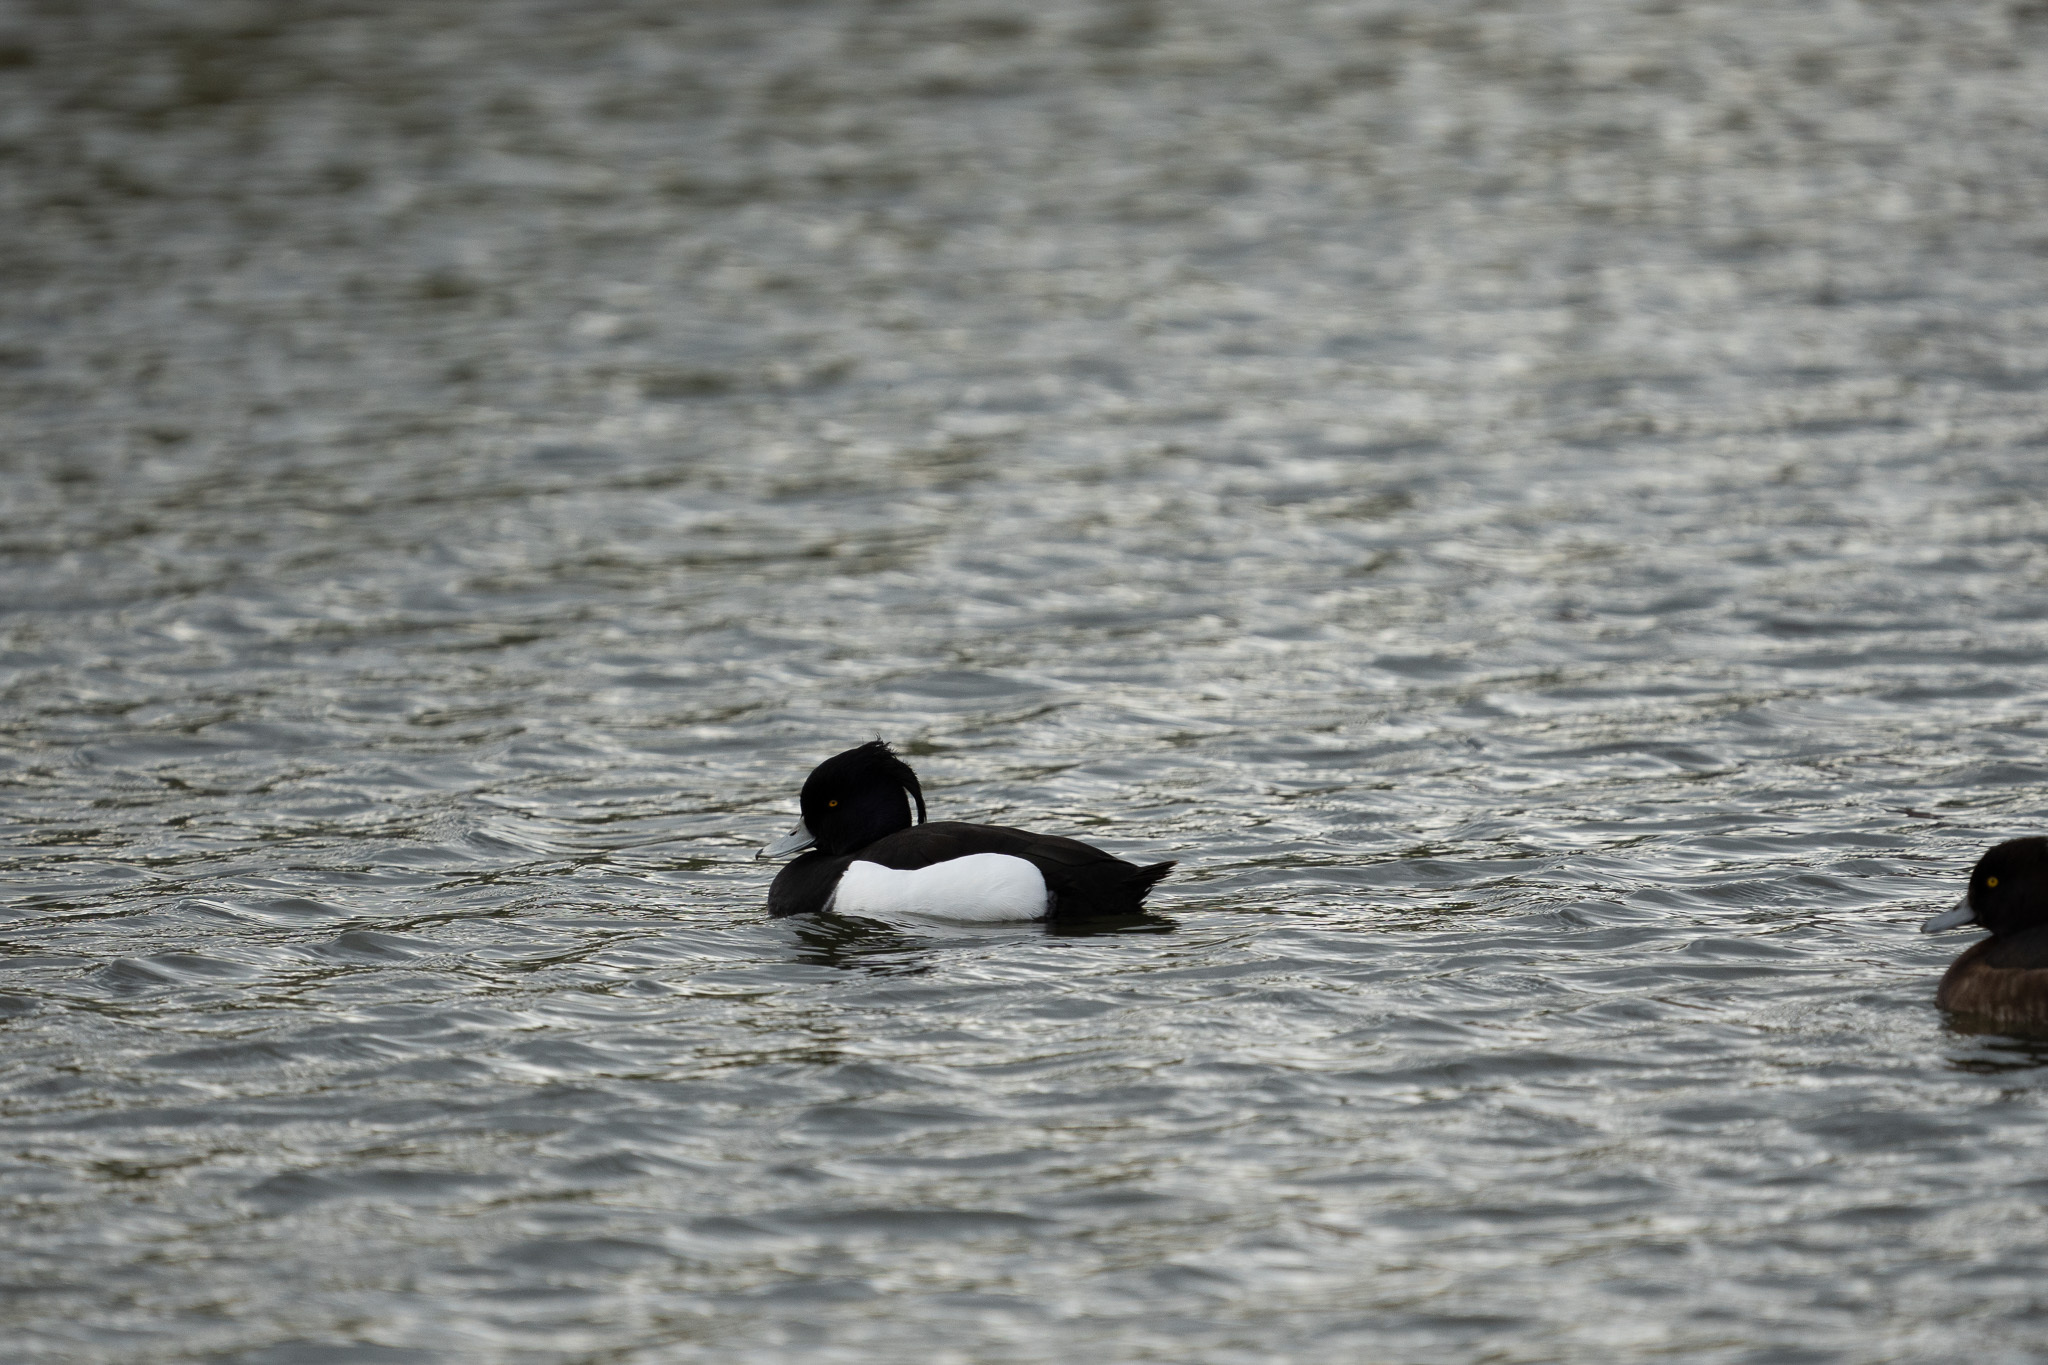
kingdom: Animalia
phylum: Chordata
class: Aves
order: Anseriformes
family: Anatidae
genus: Aythya
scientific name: Aythya fuligula
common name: Tufted duck
